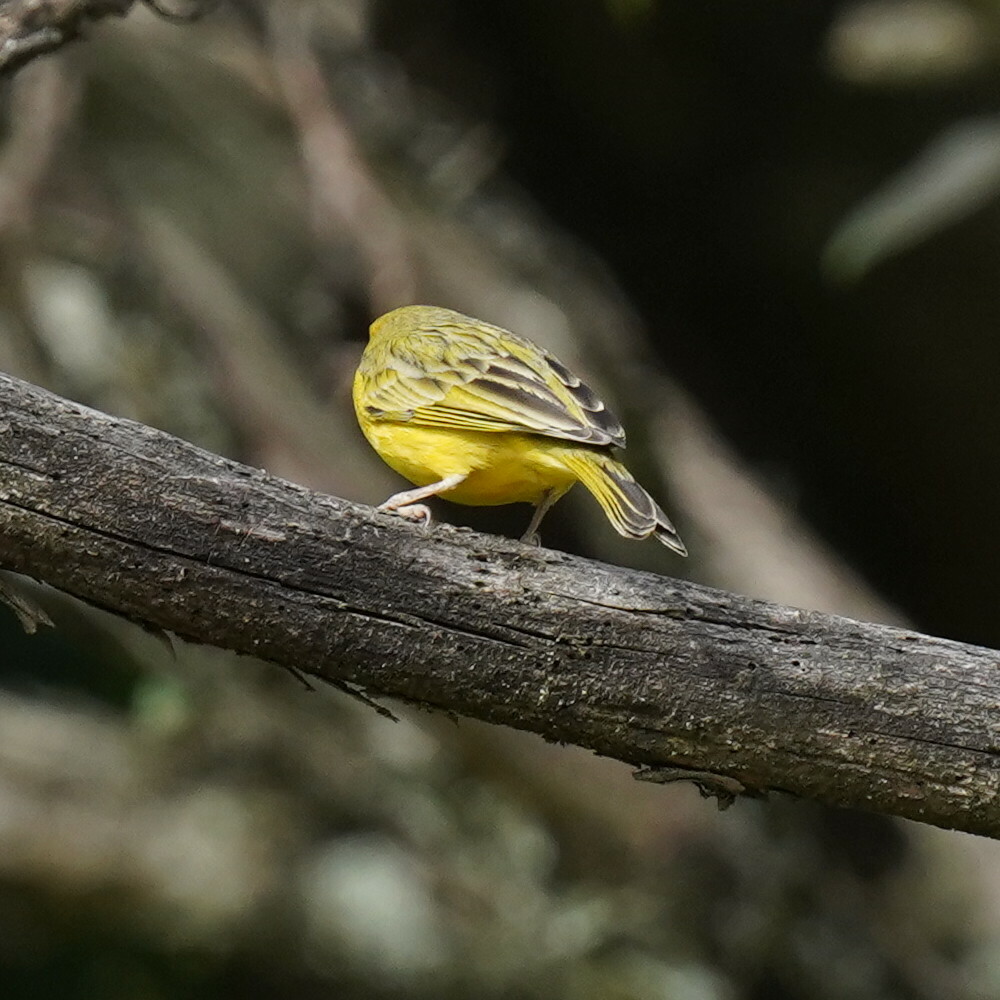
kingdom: Animalia
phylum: Chordata
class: Aves
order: Passeriformes
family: Thraupidae
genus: Sicalis
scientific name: Sicalis flaveola
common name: Saffron finch
